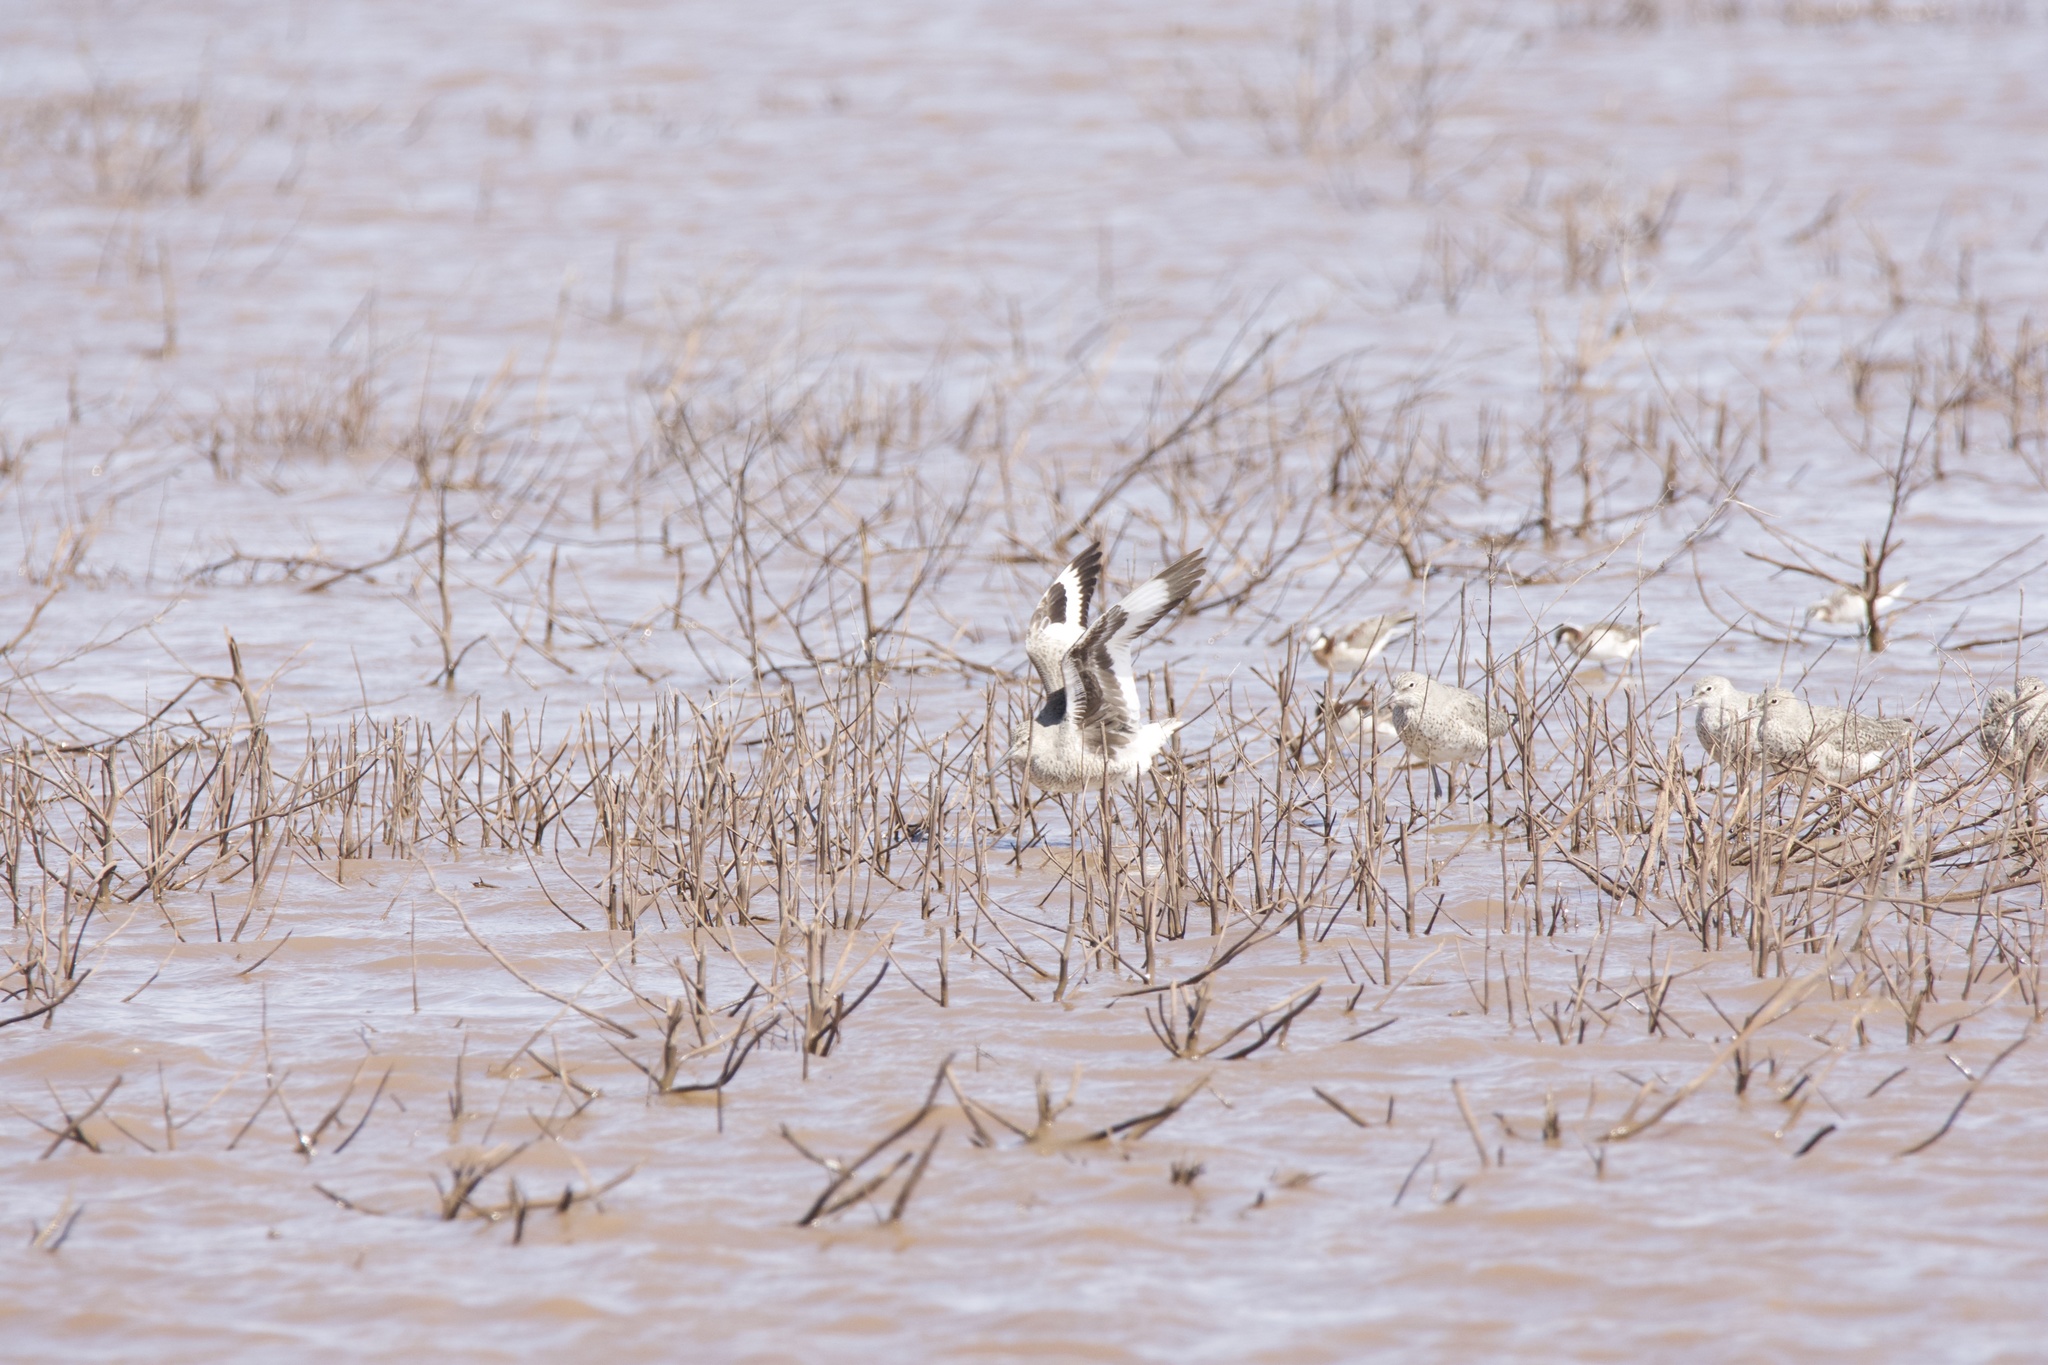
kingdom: Animalia
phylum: Chordata
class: Aves
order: Charadriiformes
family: Scolopacidae
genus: Tringa
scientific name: Tringa semipalmata
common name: Willet
